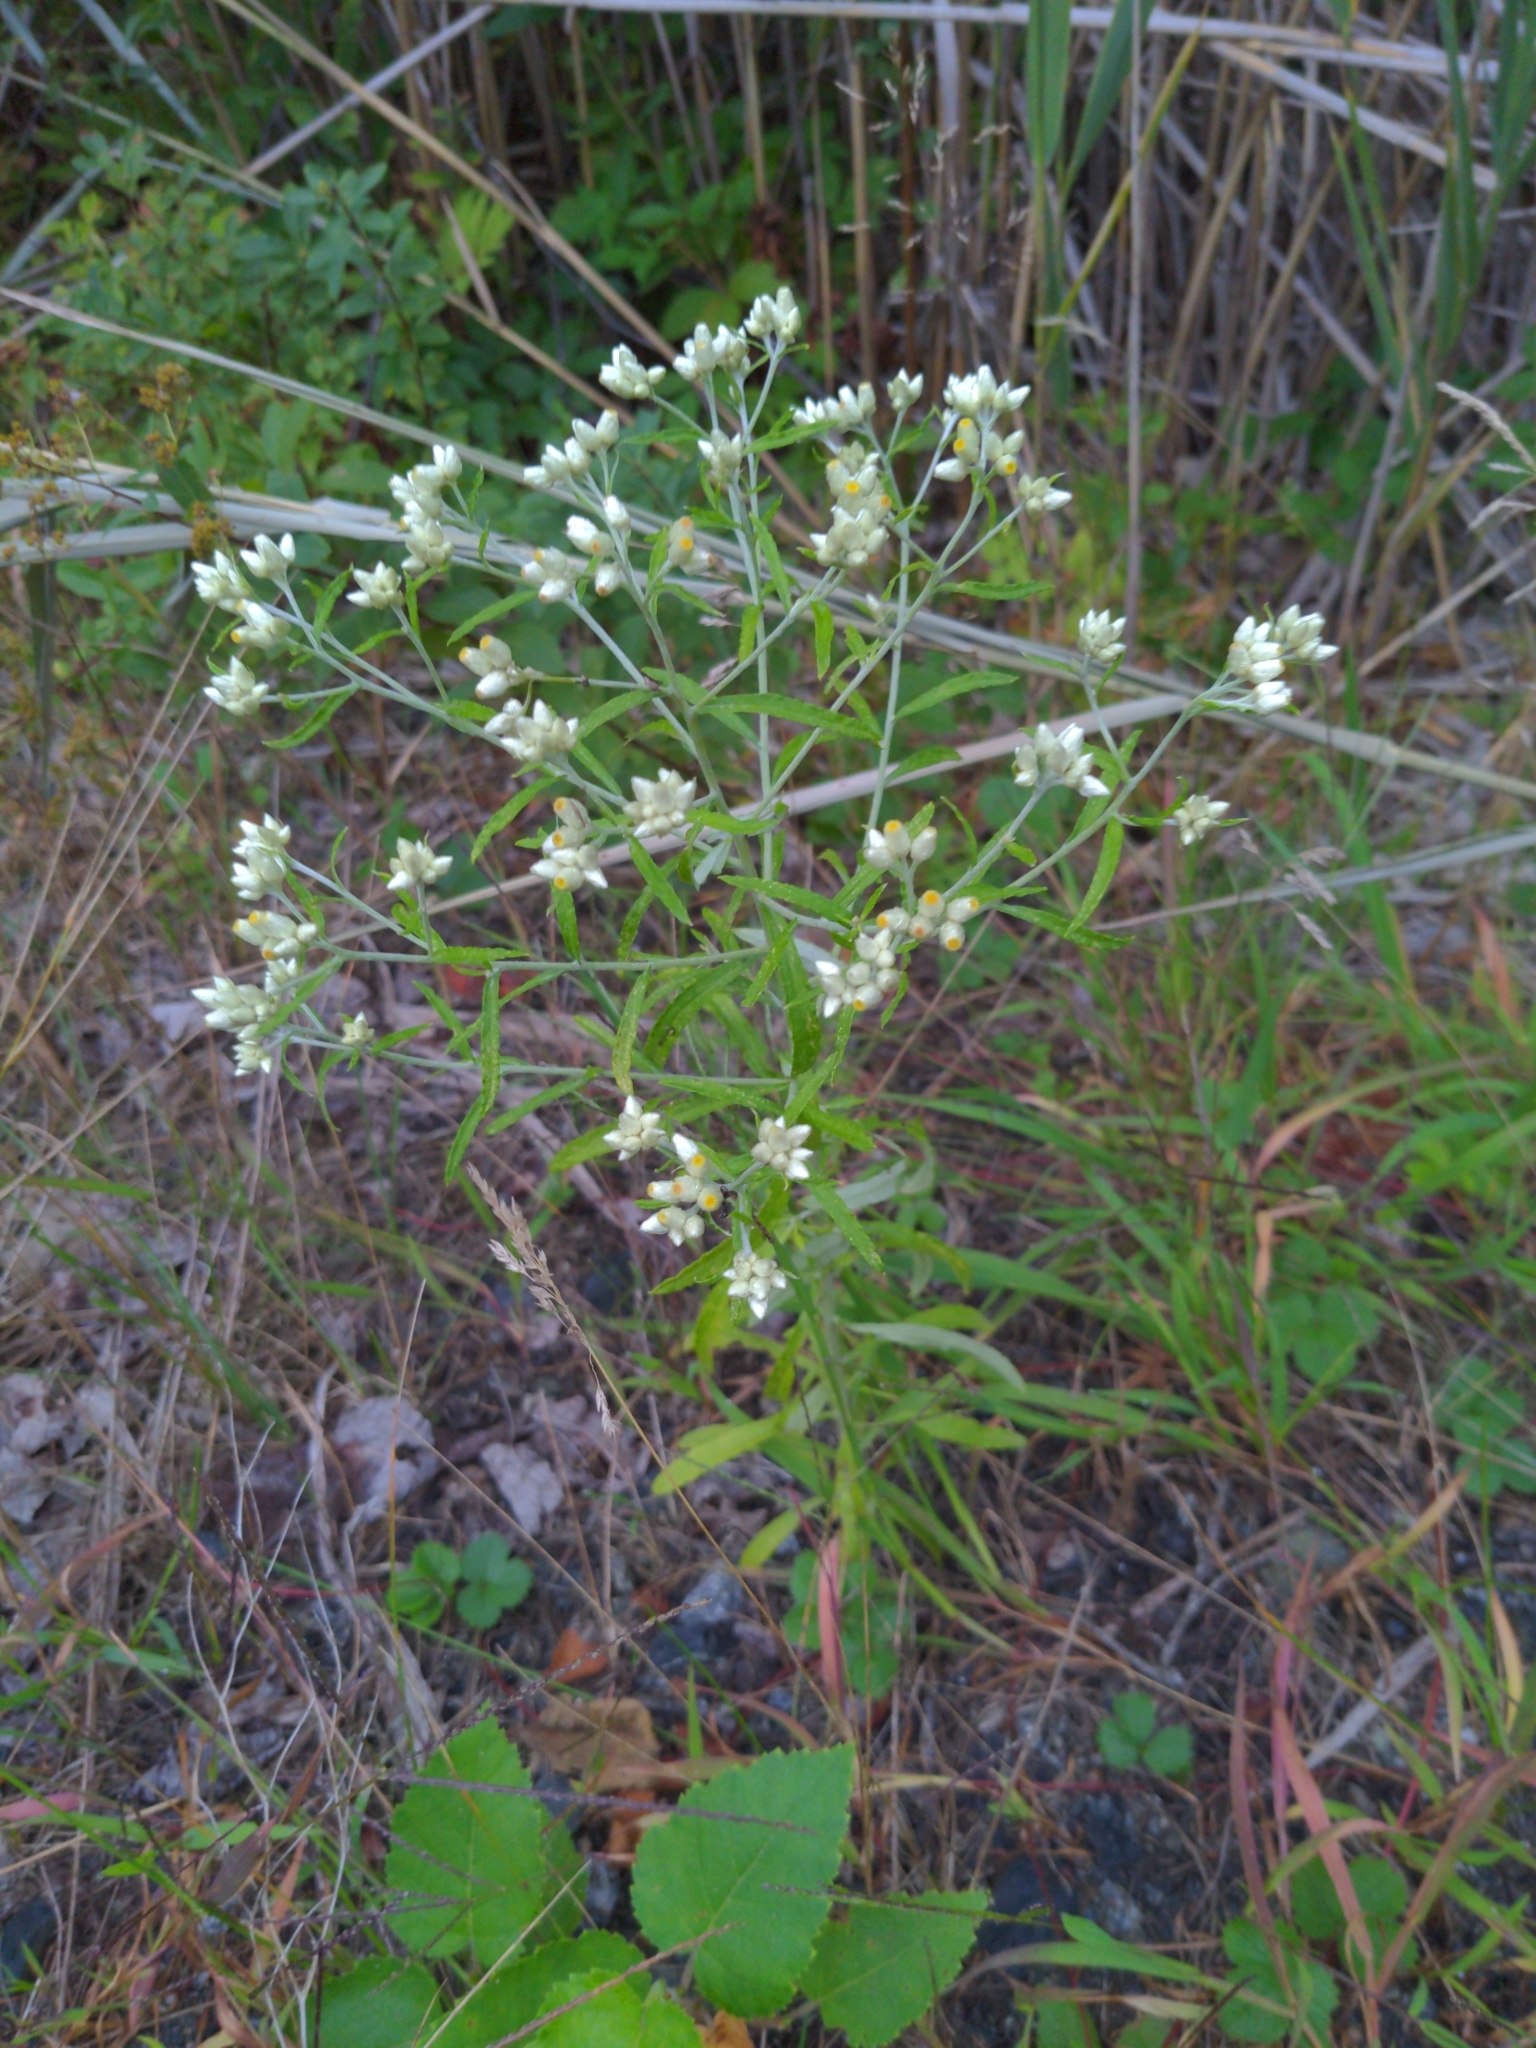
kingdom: Plantae
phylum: Tracheophyta
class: Magnoliopsida
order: Asterales
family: Asteraceae
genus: Pseudognaphalium
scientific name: Pseudognaphalium obtusifolium
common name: Eastern rabbit-tobacco
